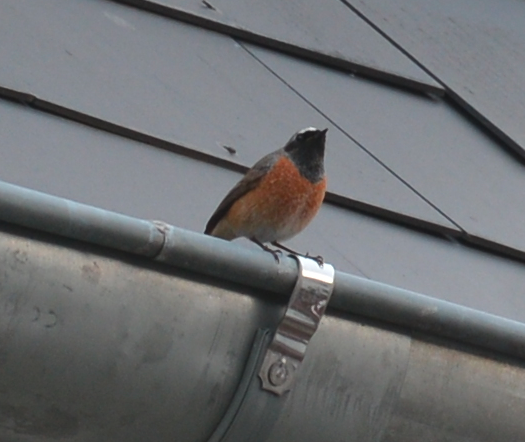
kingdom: Animalia
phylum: Chordata
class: Aves
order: Passeriformes
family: Muscicapidae
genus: Phoenicurus
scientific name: Phoenicurus phoenicurus
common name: Common redstart
